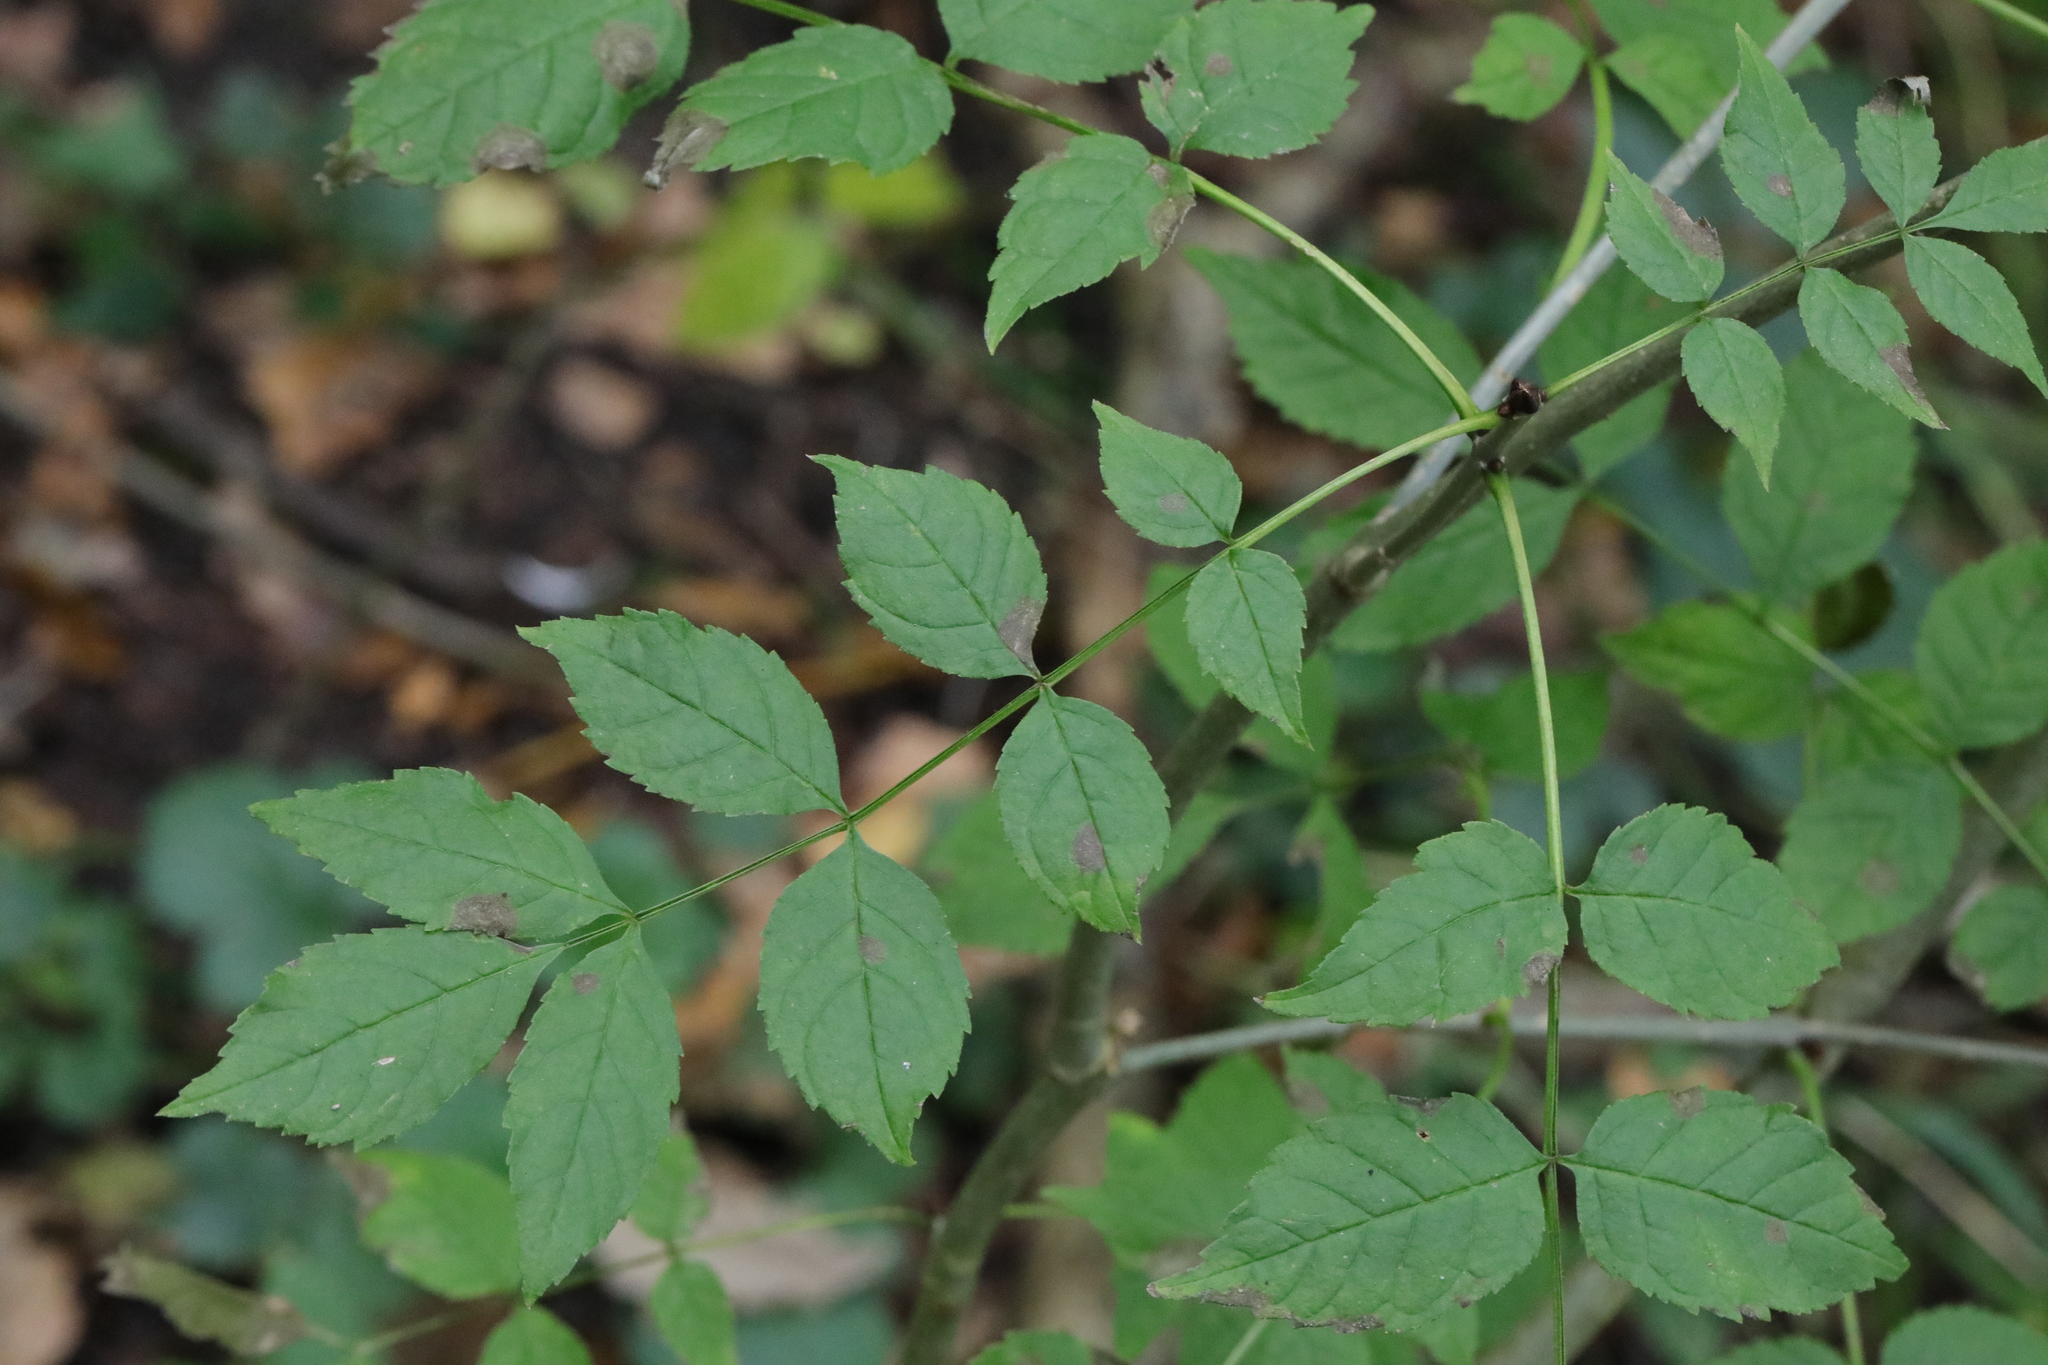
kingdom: Plantae
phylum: Tracheophyta
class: Magnoliopsida
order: Lamiales
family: Oleaceae
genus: Fraxinus
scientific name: Fraxinus excelsior
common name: European ash
